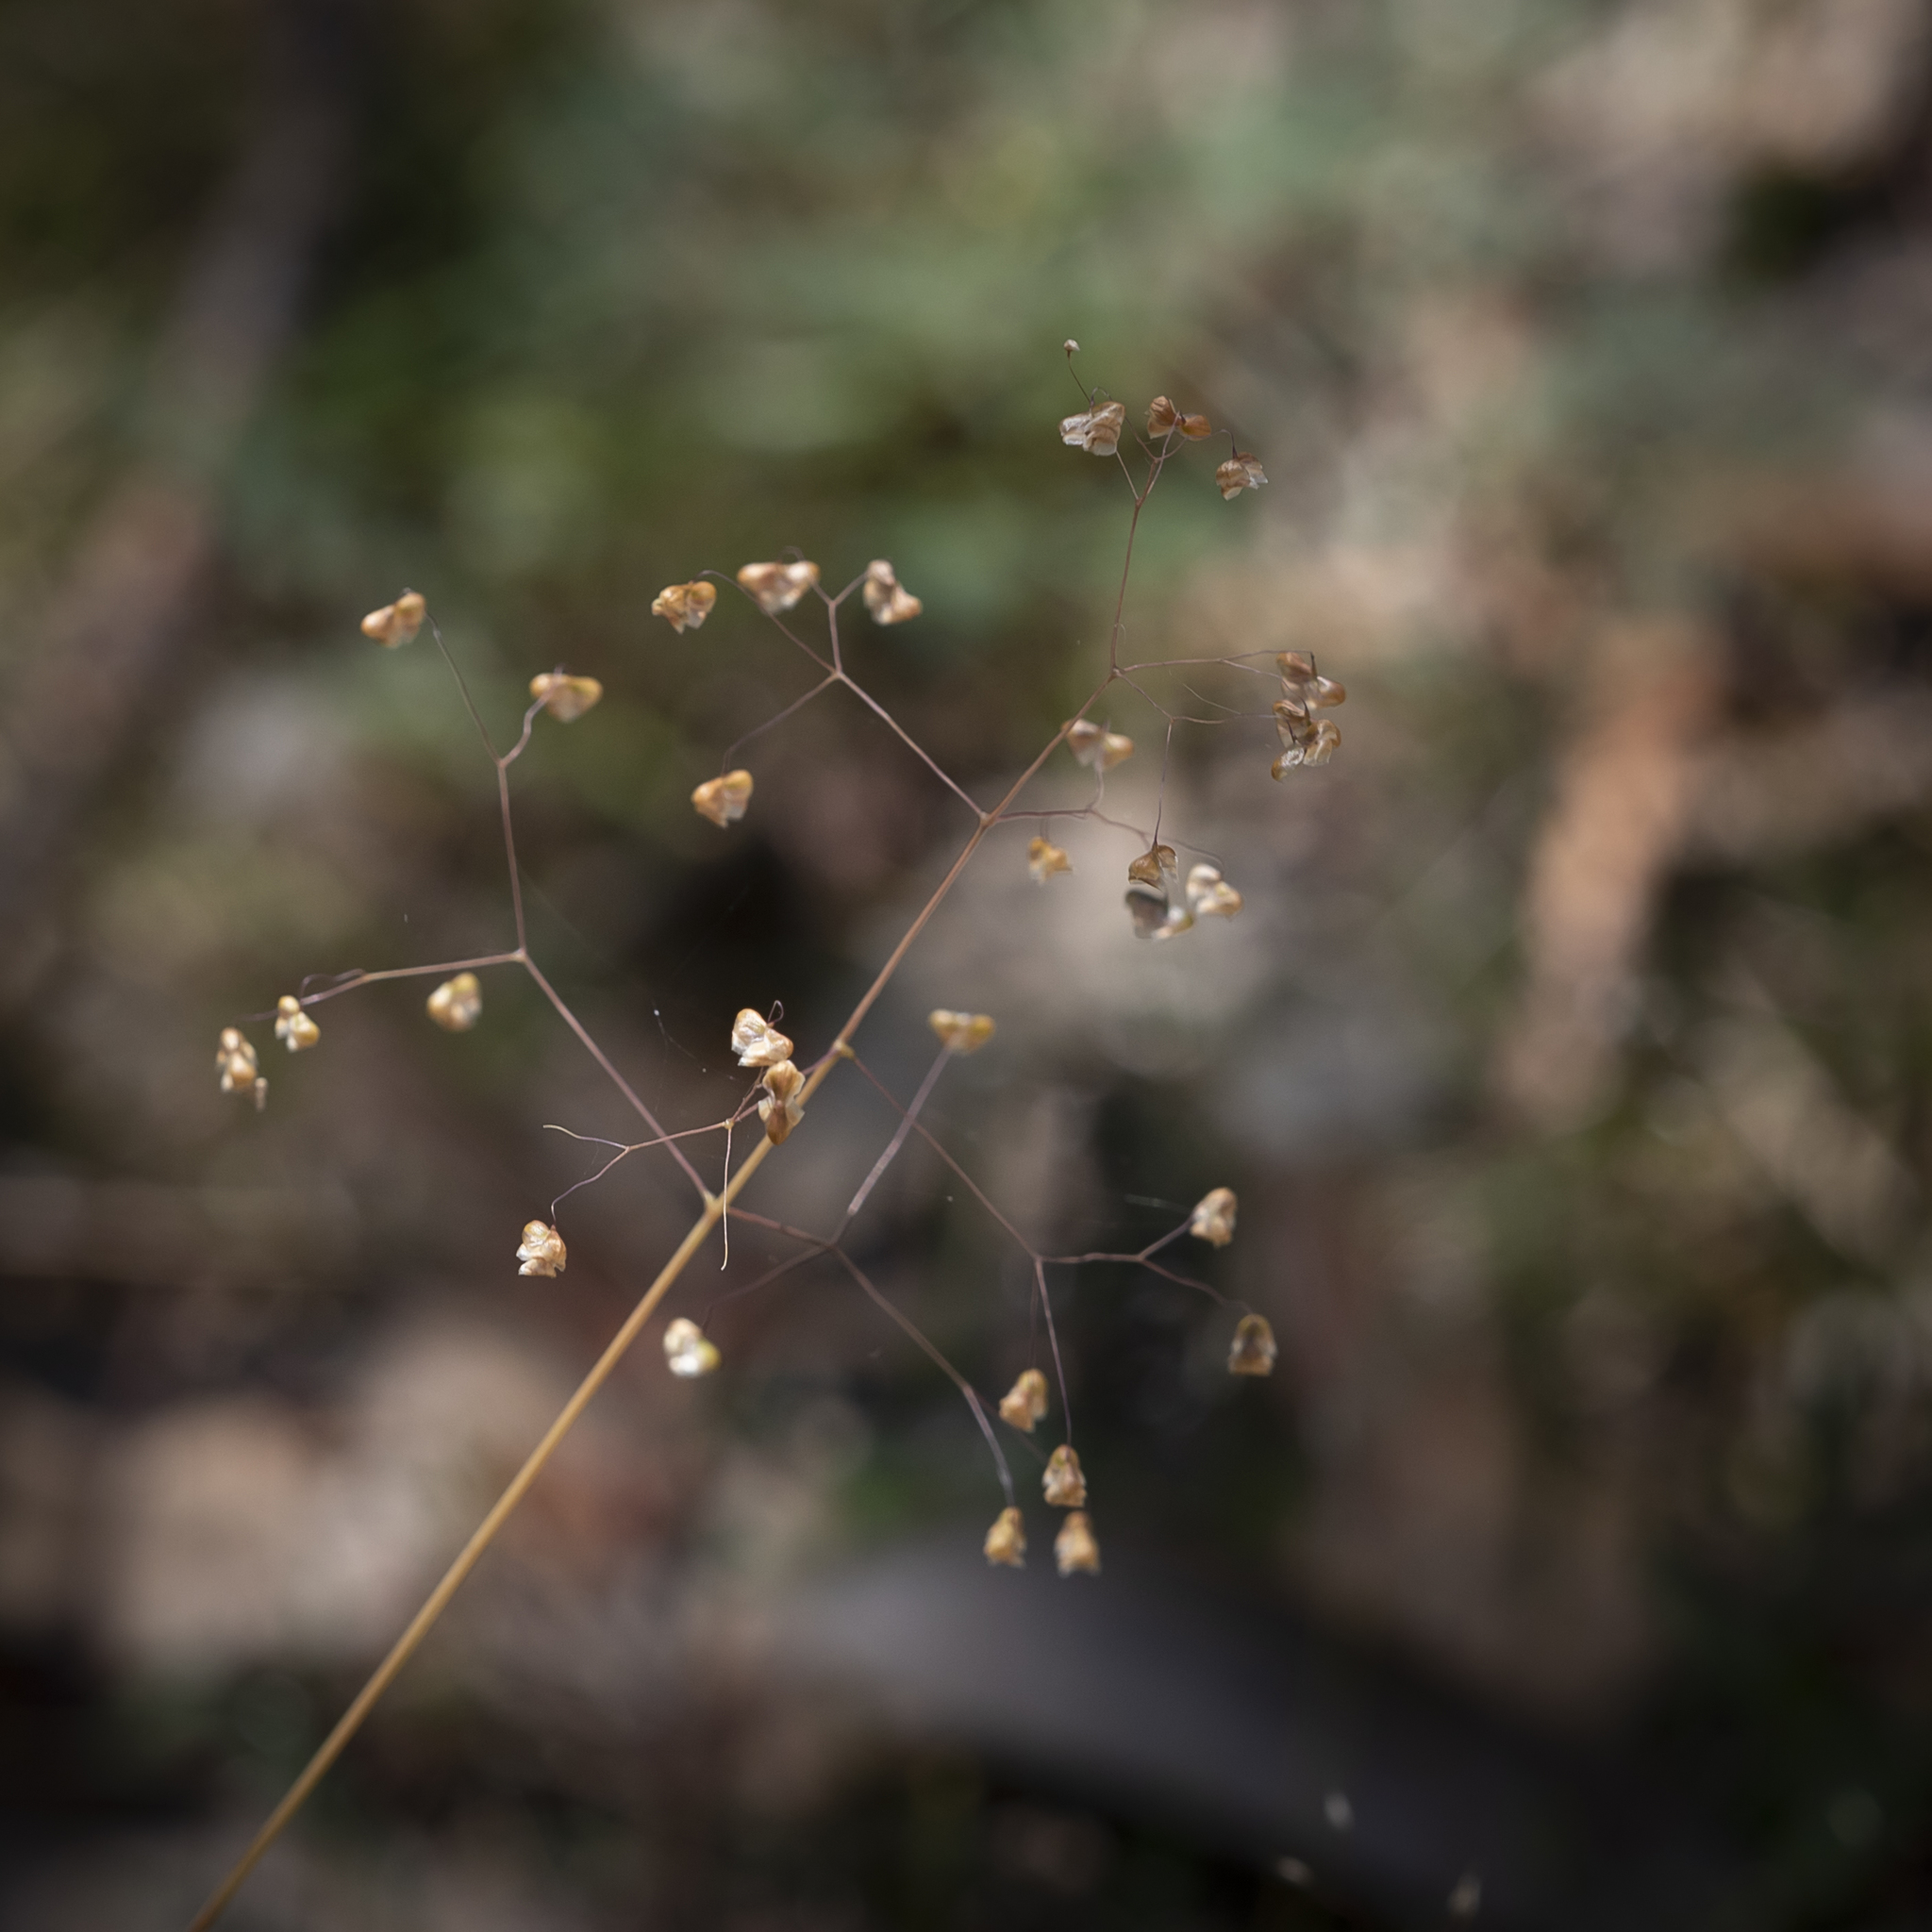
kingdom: Plantae
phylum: Tracheophyta
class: Liliopsida
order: Poales
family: Poaceae
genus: Briza
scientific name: Briza minor
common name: Lesser quaking-grass
